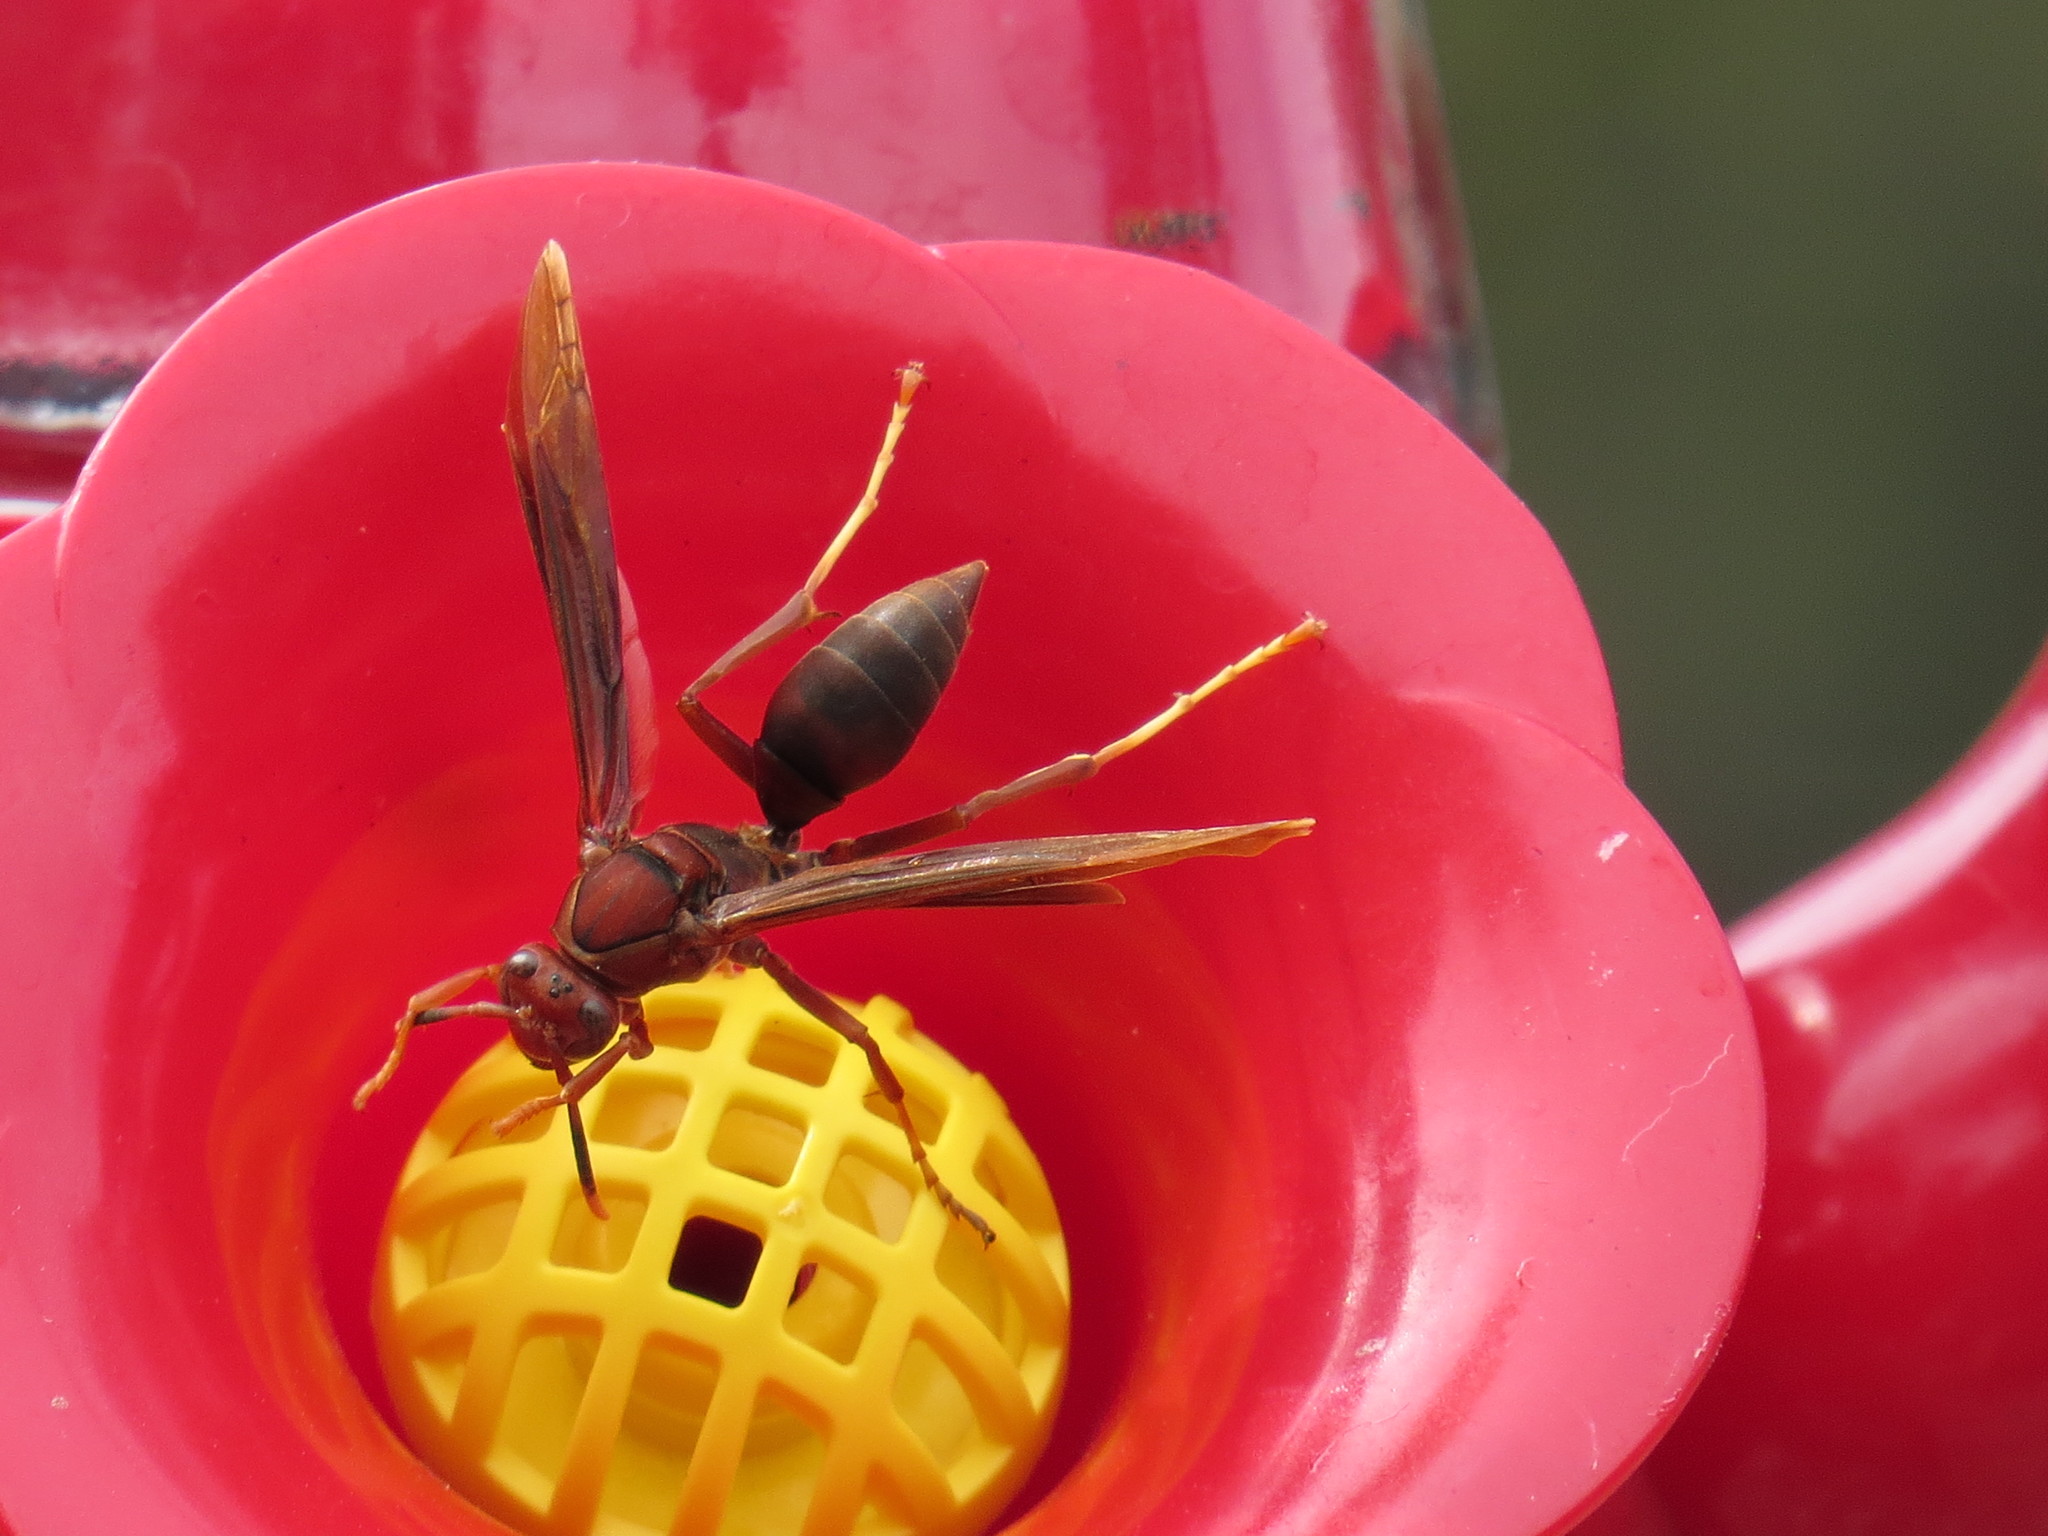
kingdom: Animalia
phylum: Arthropoda
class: Insecta
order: Hymenoptera
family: Eumenidae
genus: Polistes
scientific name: Polistes major
